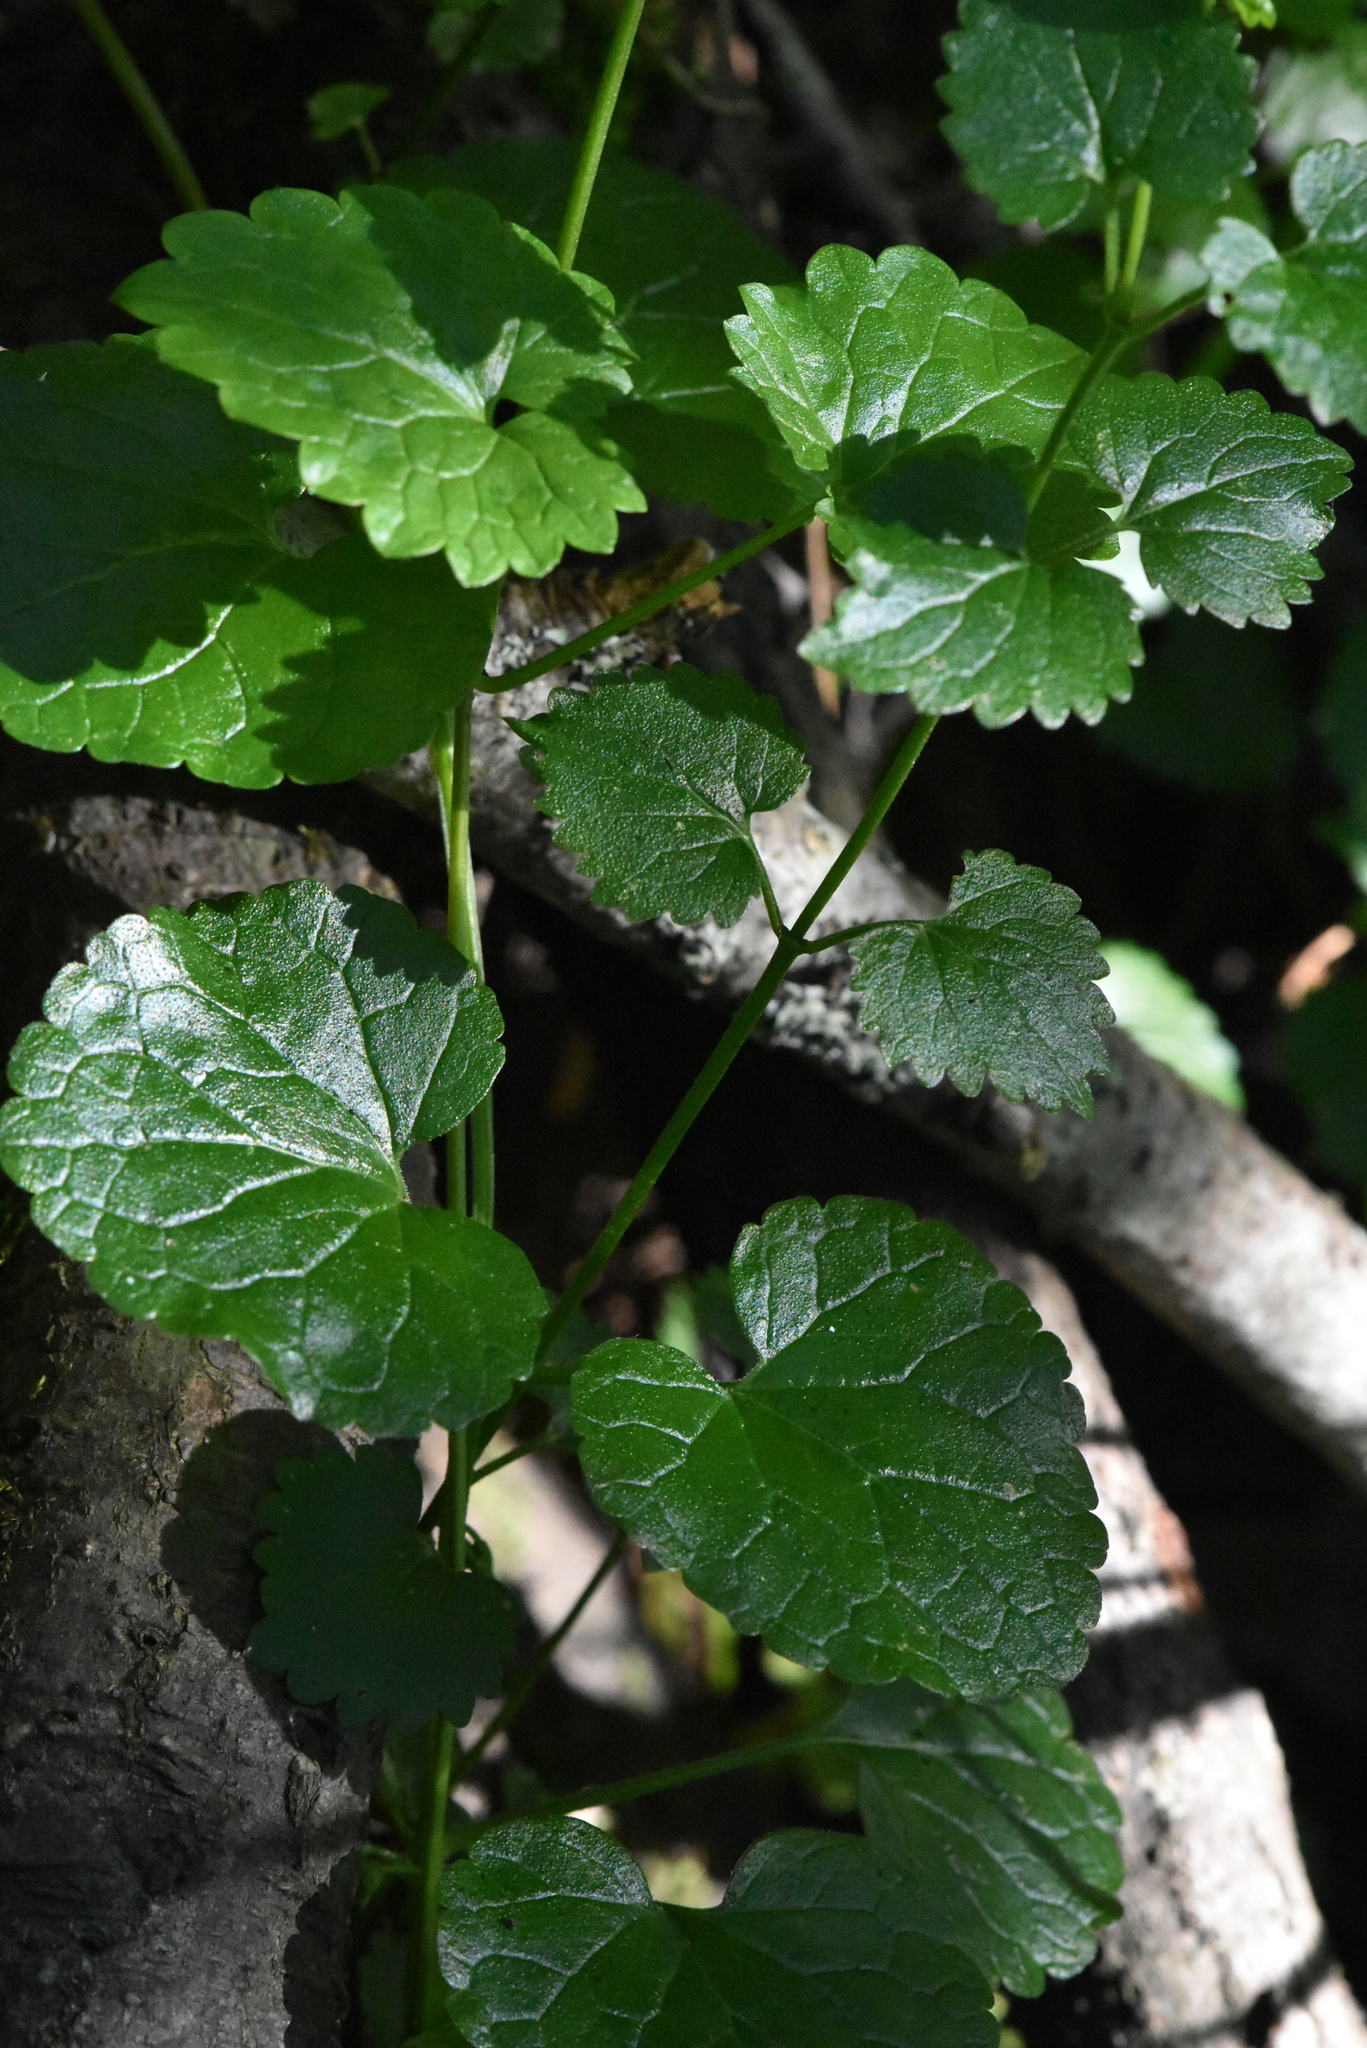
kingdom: Plantae
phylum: Tracheophyta
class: Magnoliopsida
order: Lamiales
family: Lamiaceae
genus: Glechoma
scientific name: Glechoma hederacea
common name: Ground ivy
